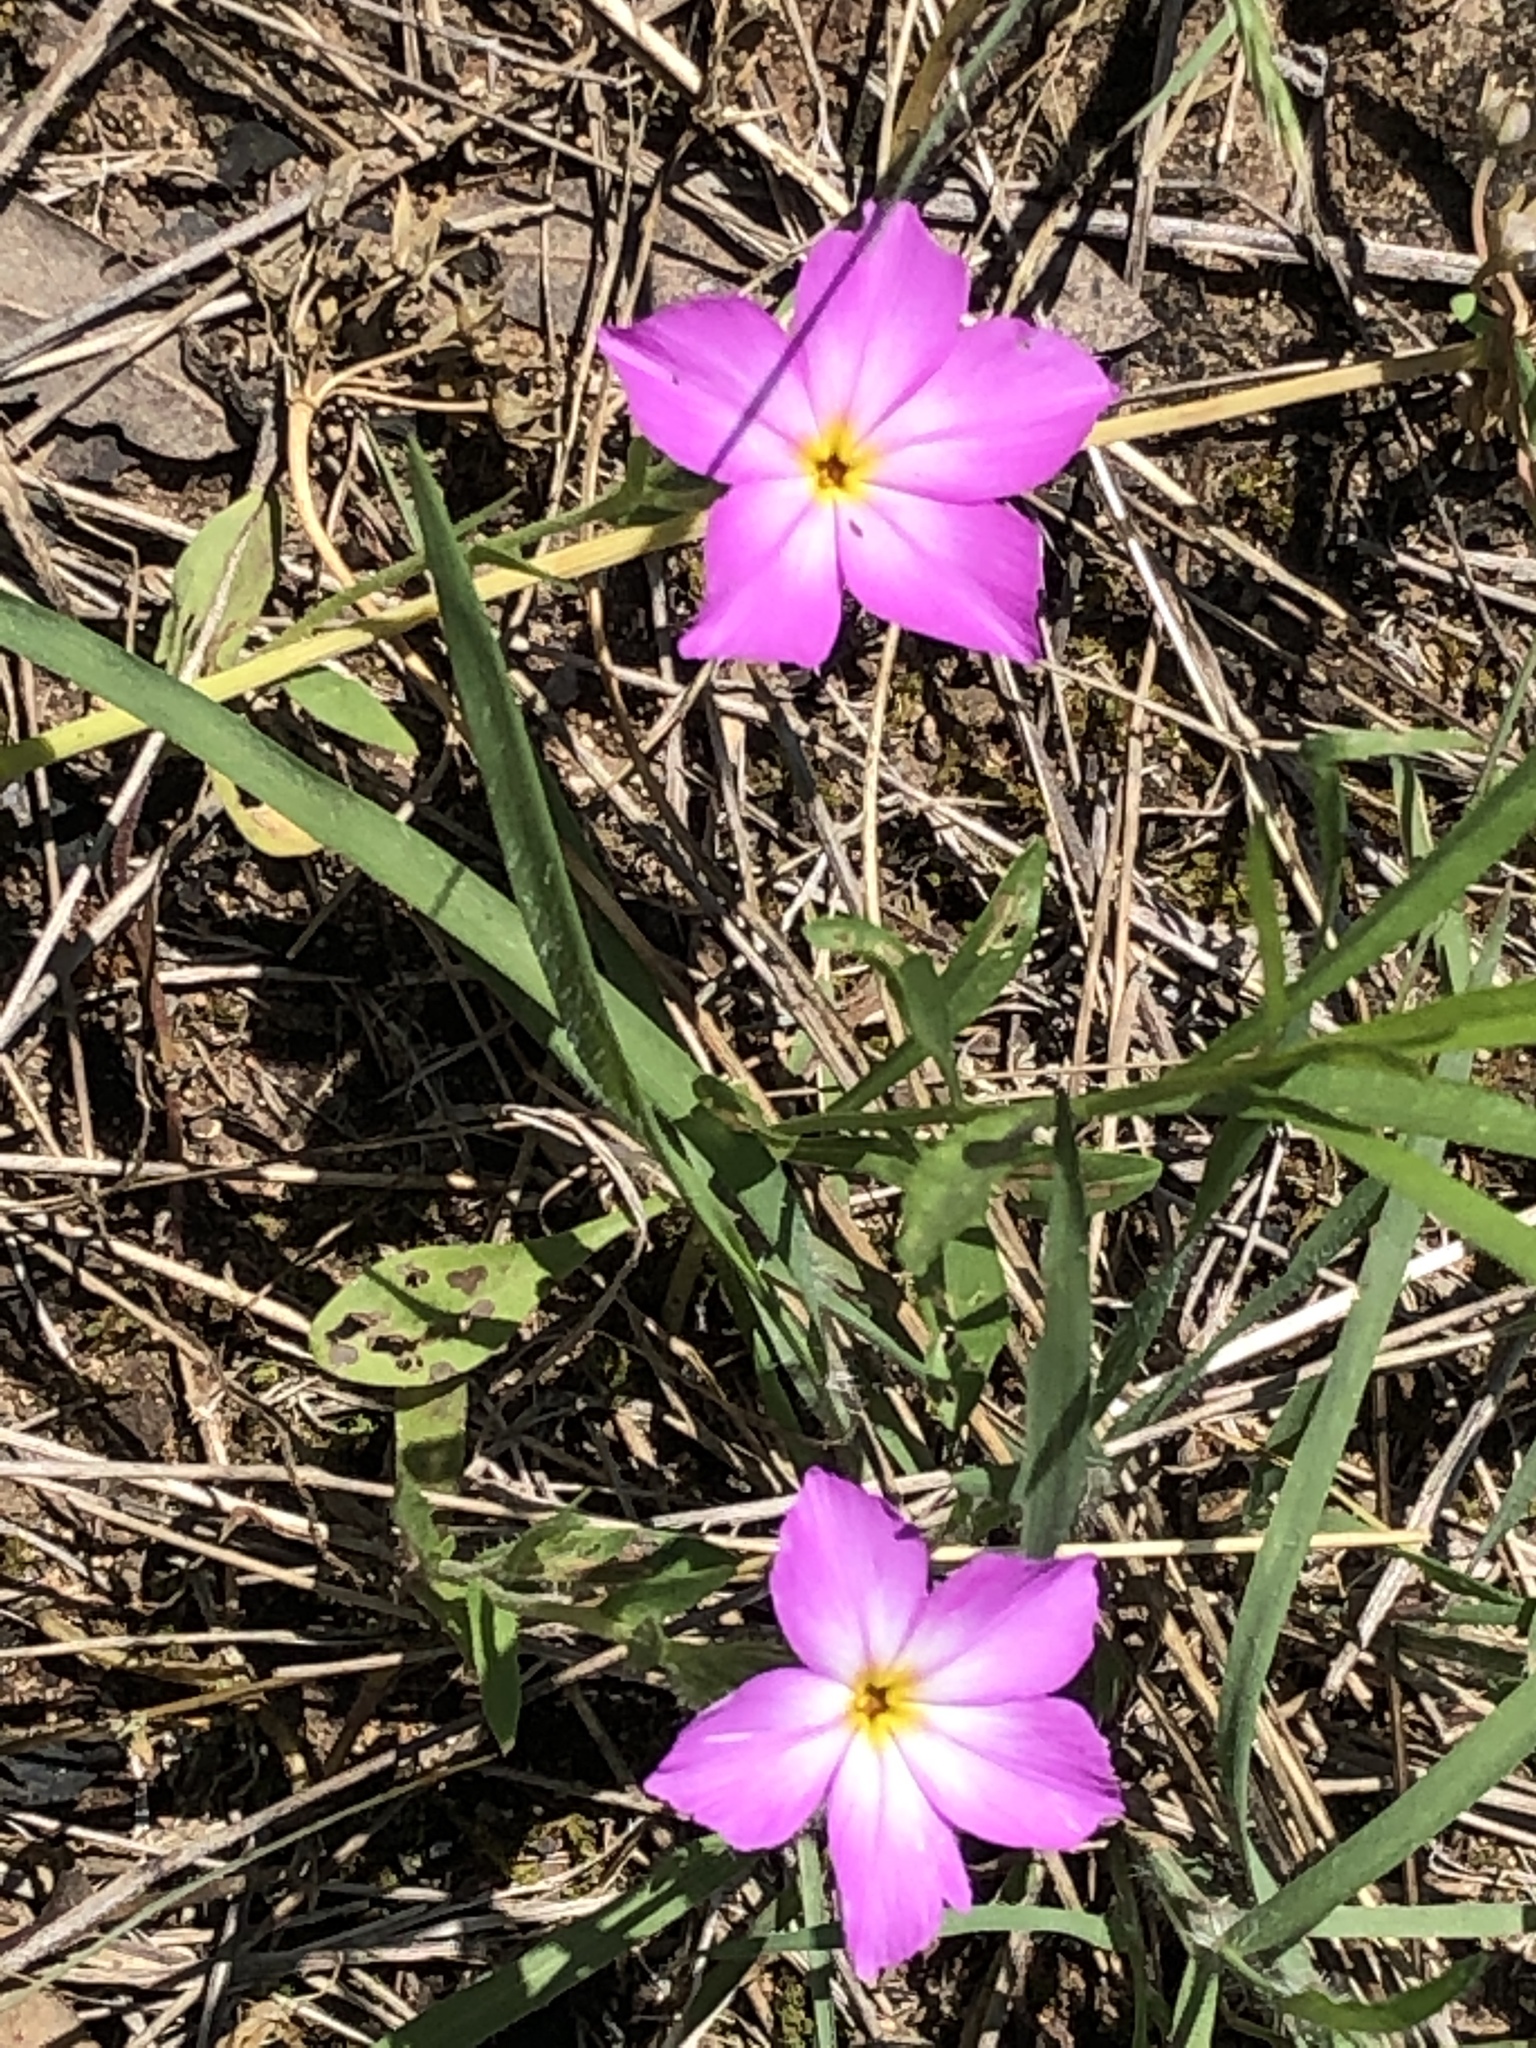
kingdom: Plantae
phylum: Tracheophyta
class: Magnoliopsida
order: Ericales
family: Polemoniaceae
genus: Phlox
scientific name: Phlox roemeriana
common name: Roemer's phlox
